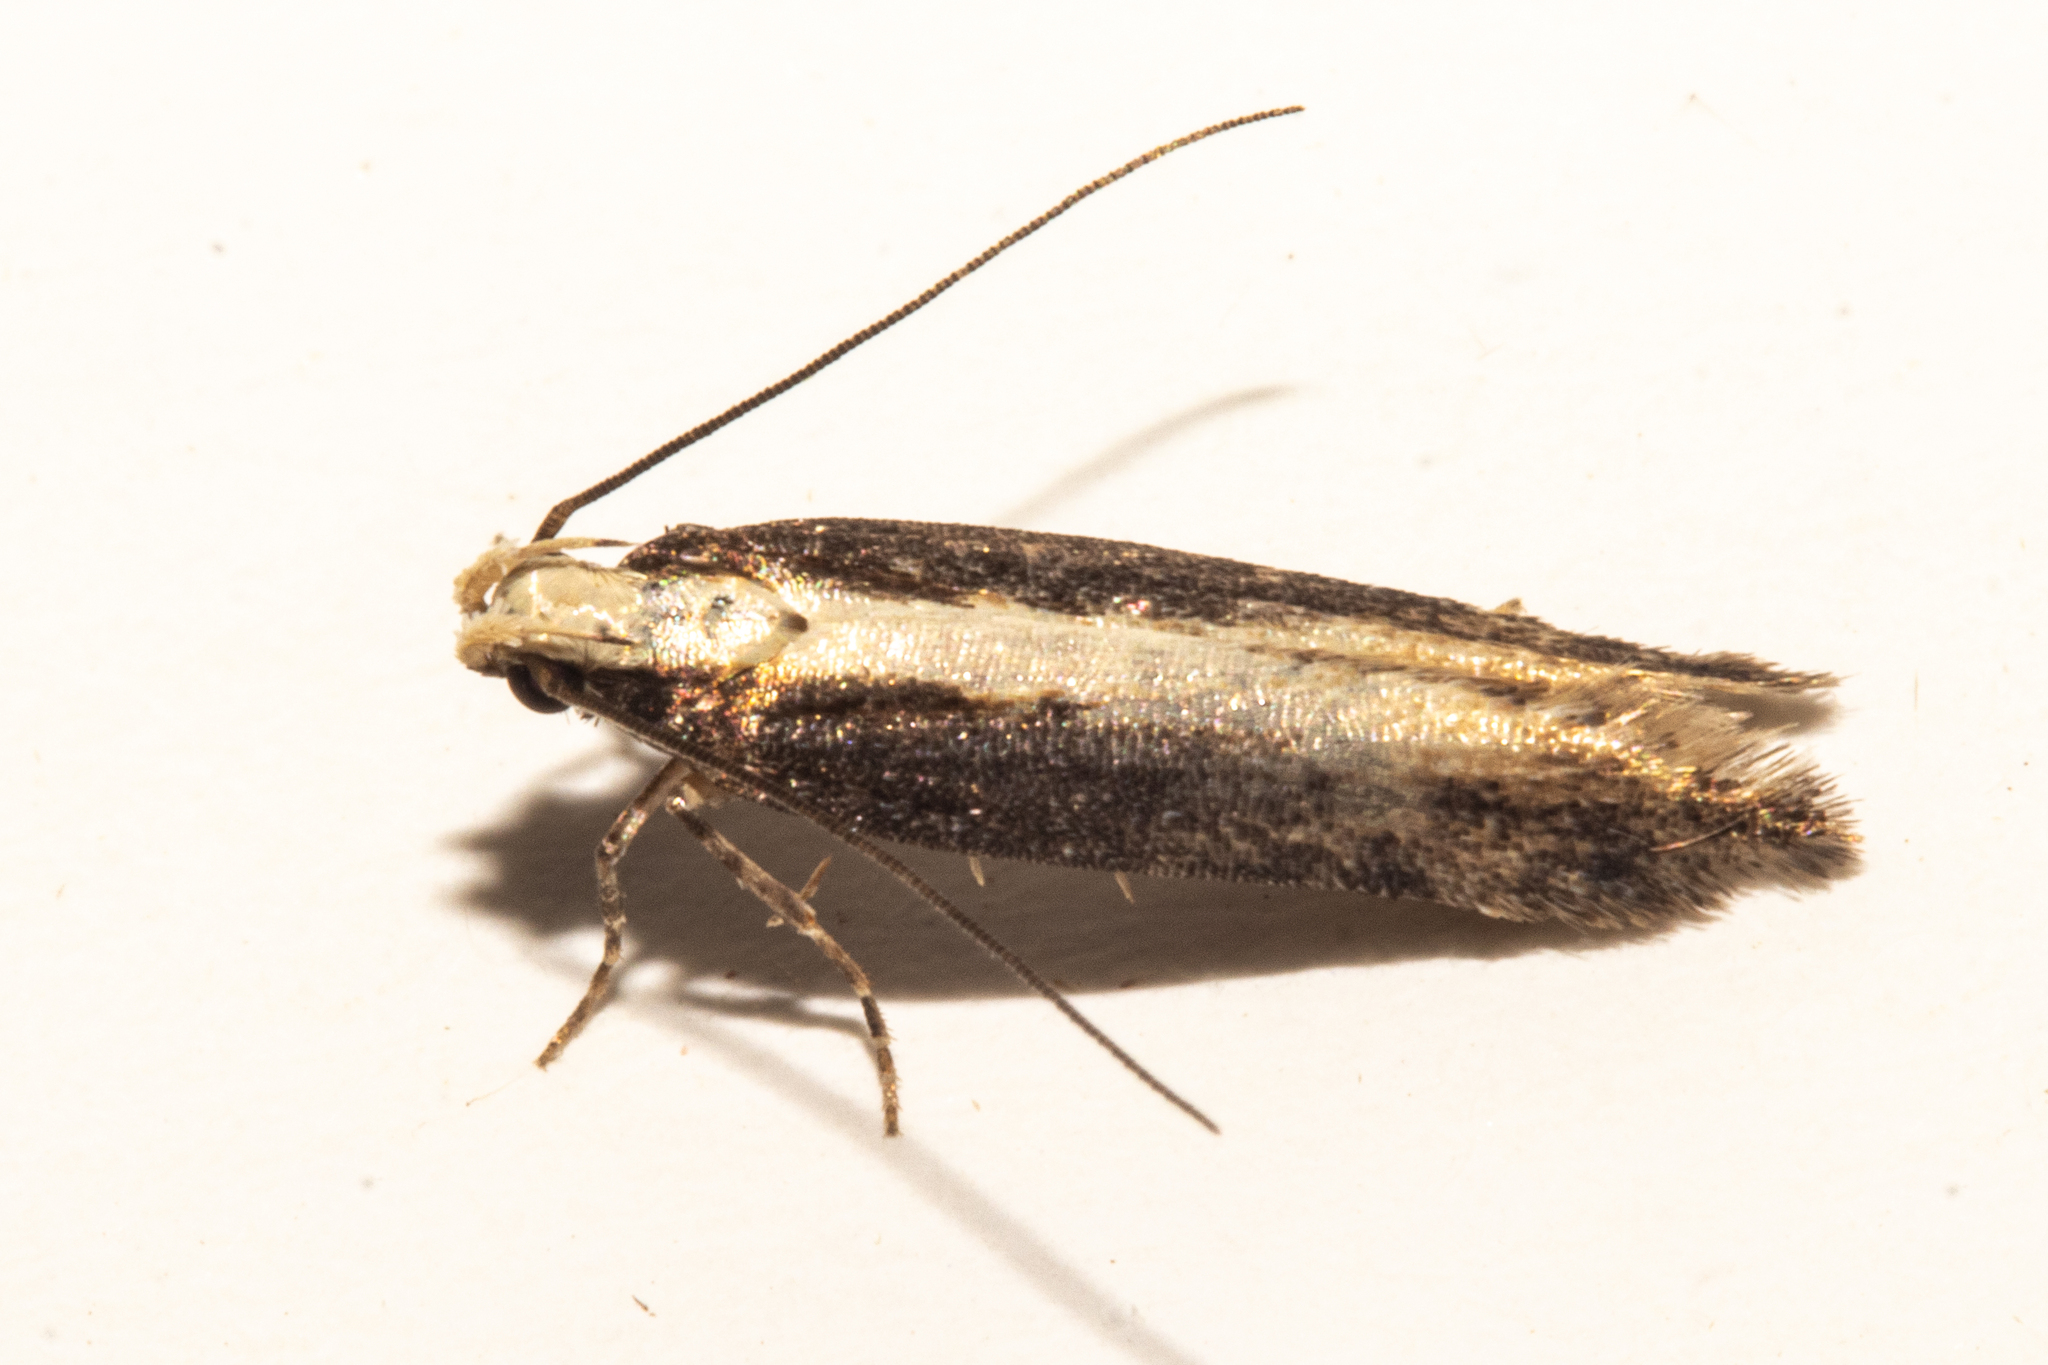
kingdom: Animalia
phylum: Arthropoda
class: Insecta
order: Lepidoptera
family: Gelechiidae
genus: Kiwaia
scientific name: Kiwaia parapleura
